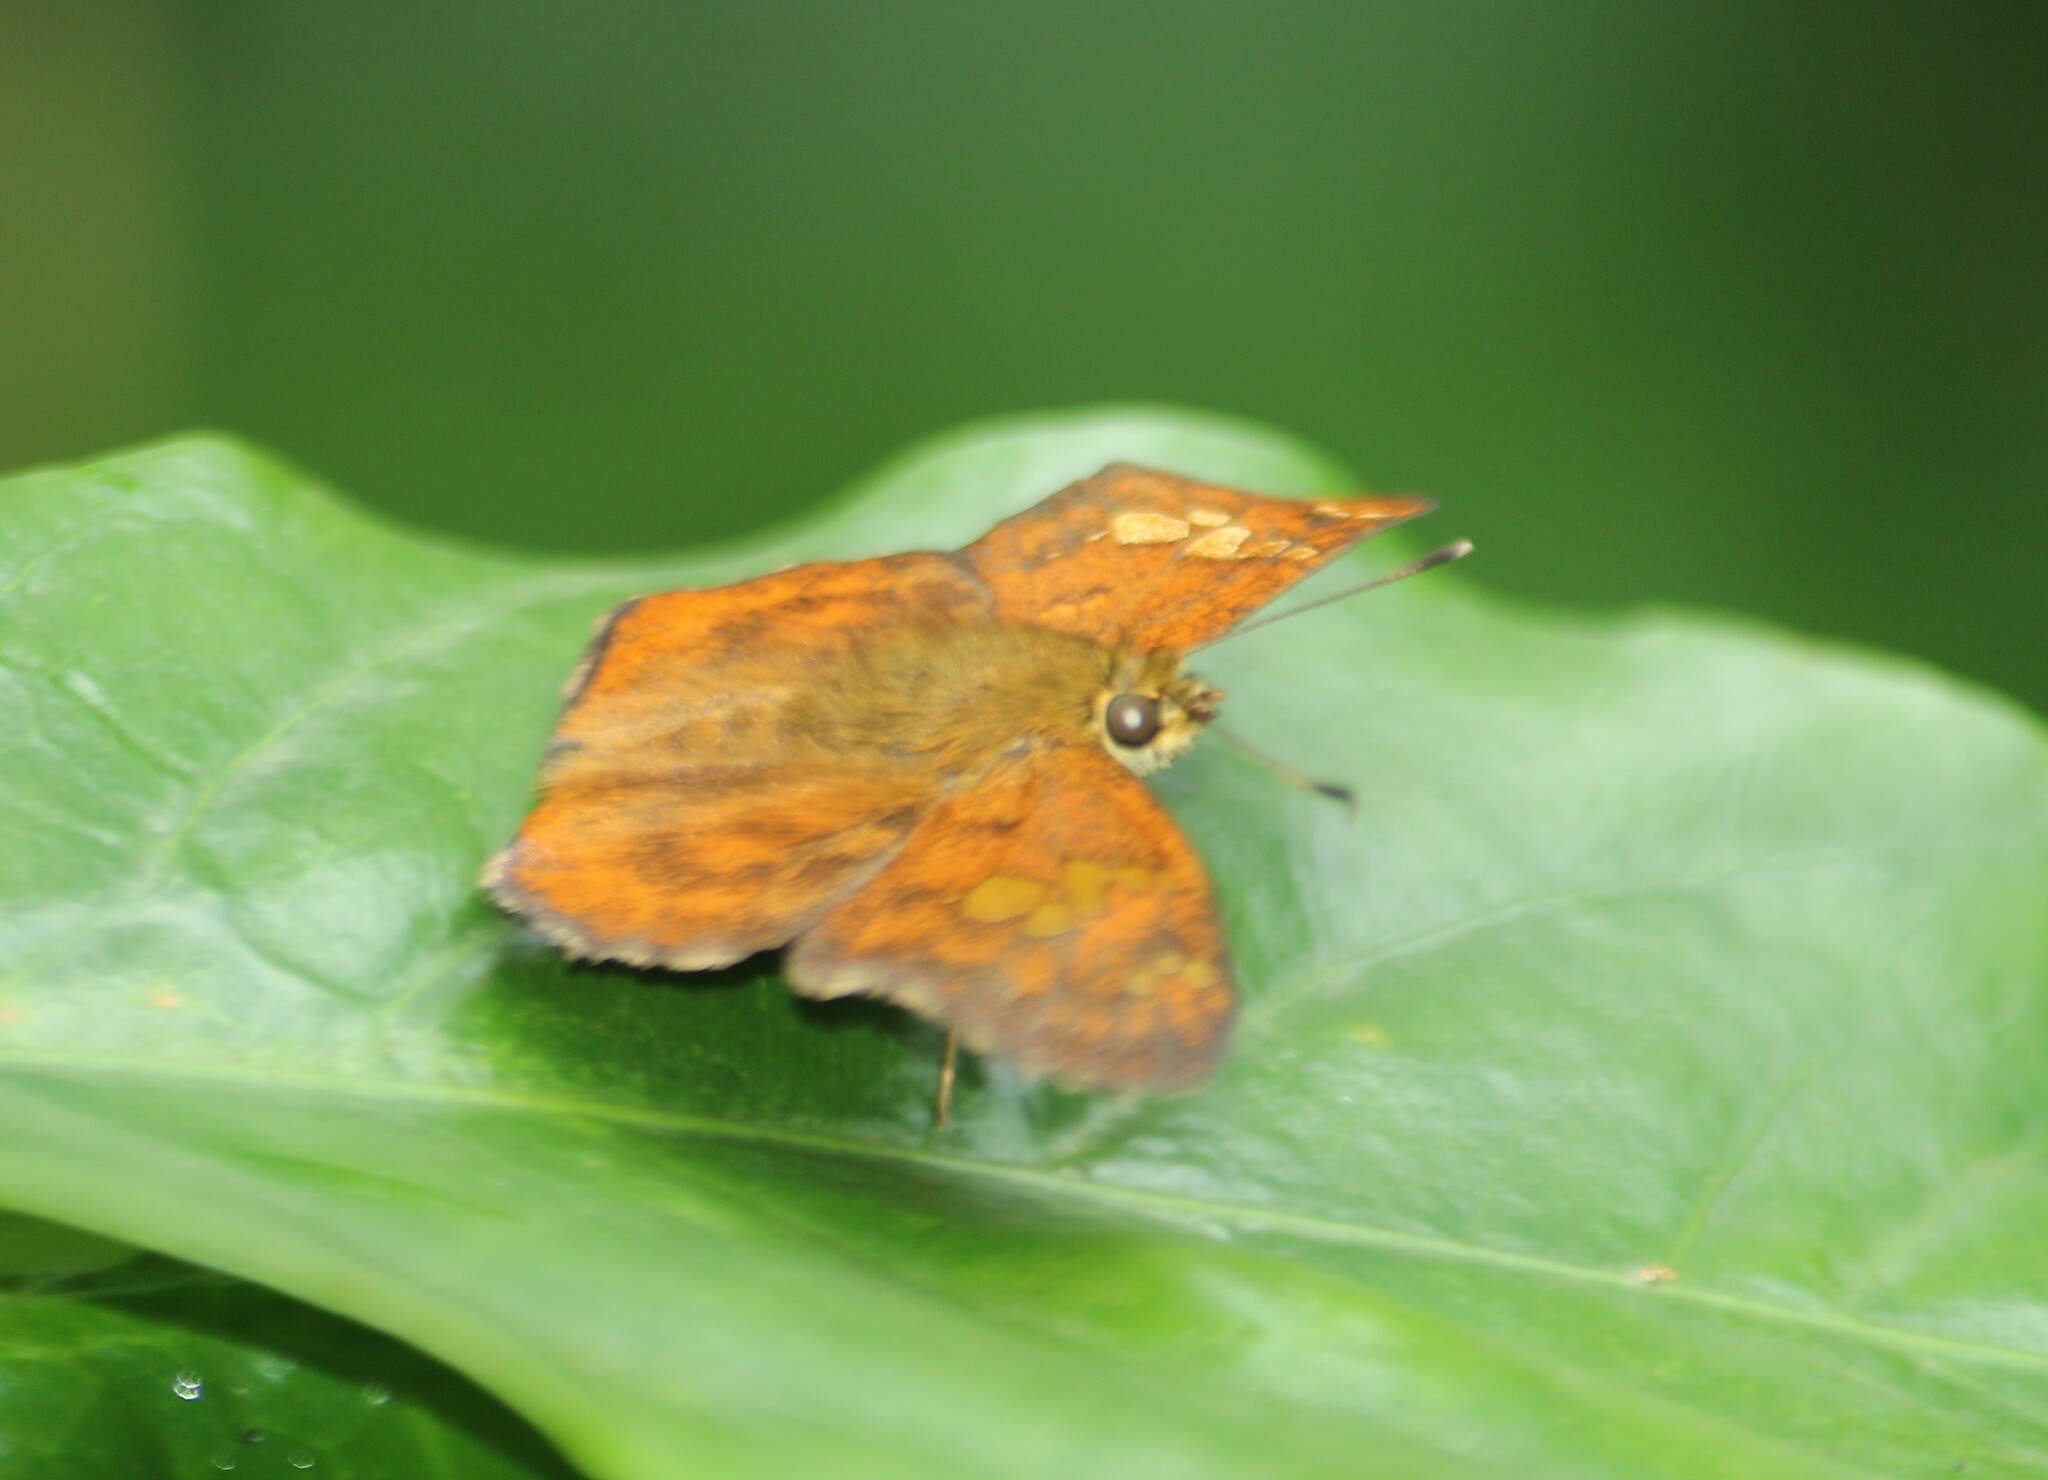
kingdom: Animalia
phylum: Arthropoda
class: Insecta
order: Lepidoptera
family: Hesperiidae
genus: Pseudocoladenia
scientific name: Pseudocoladenia dan
